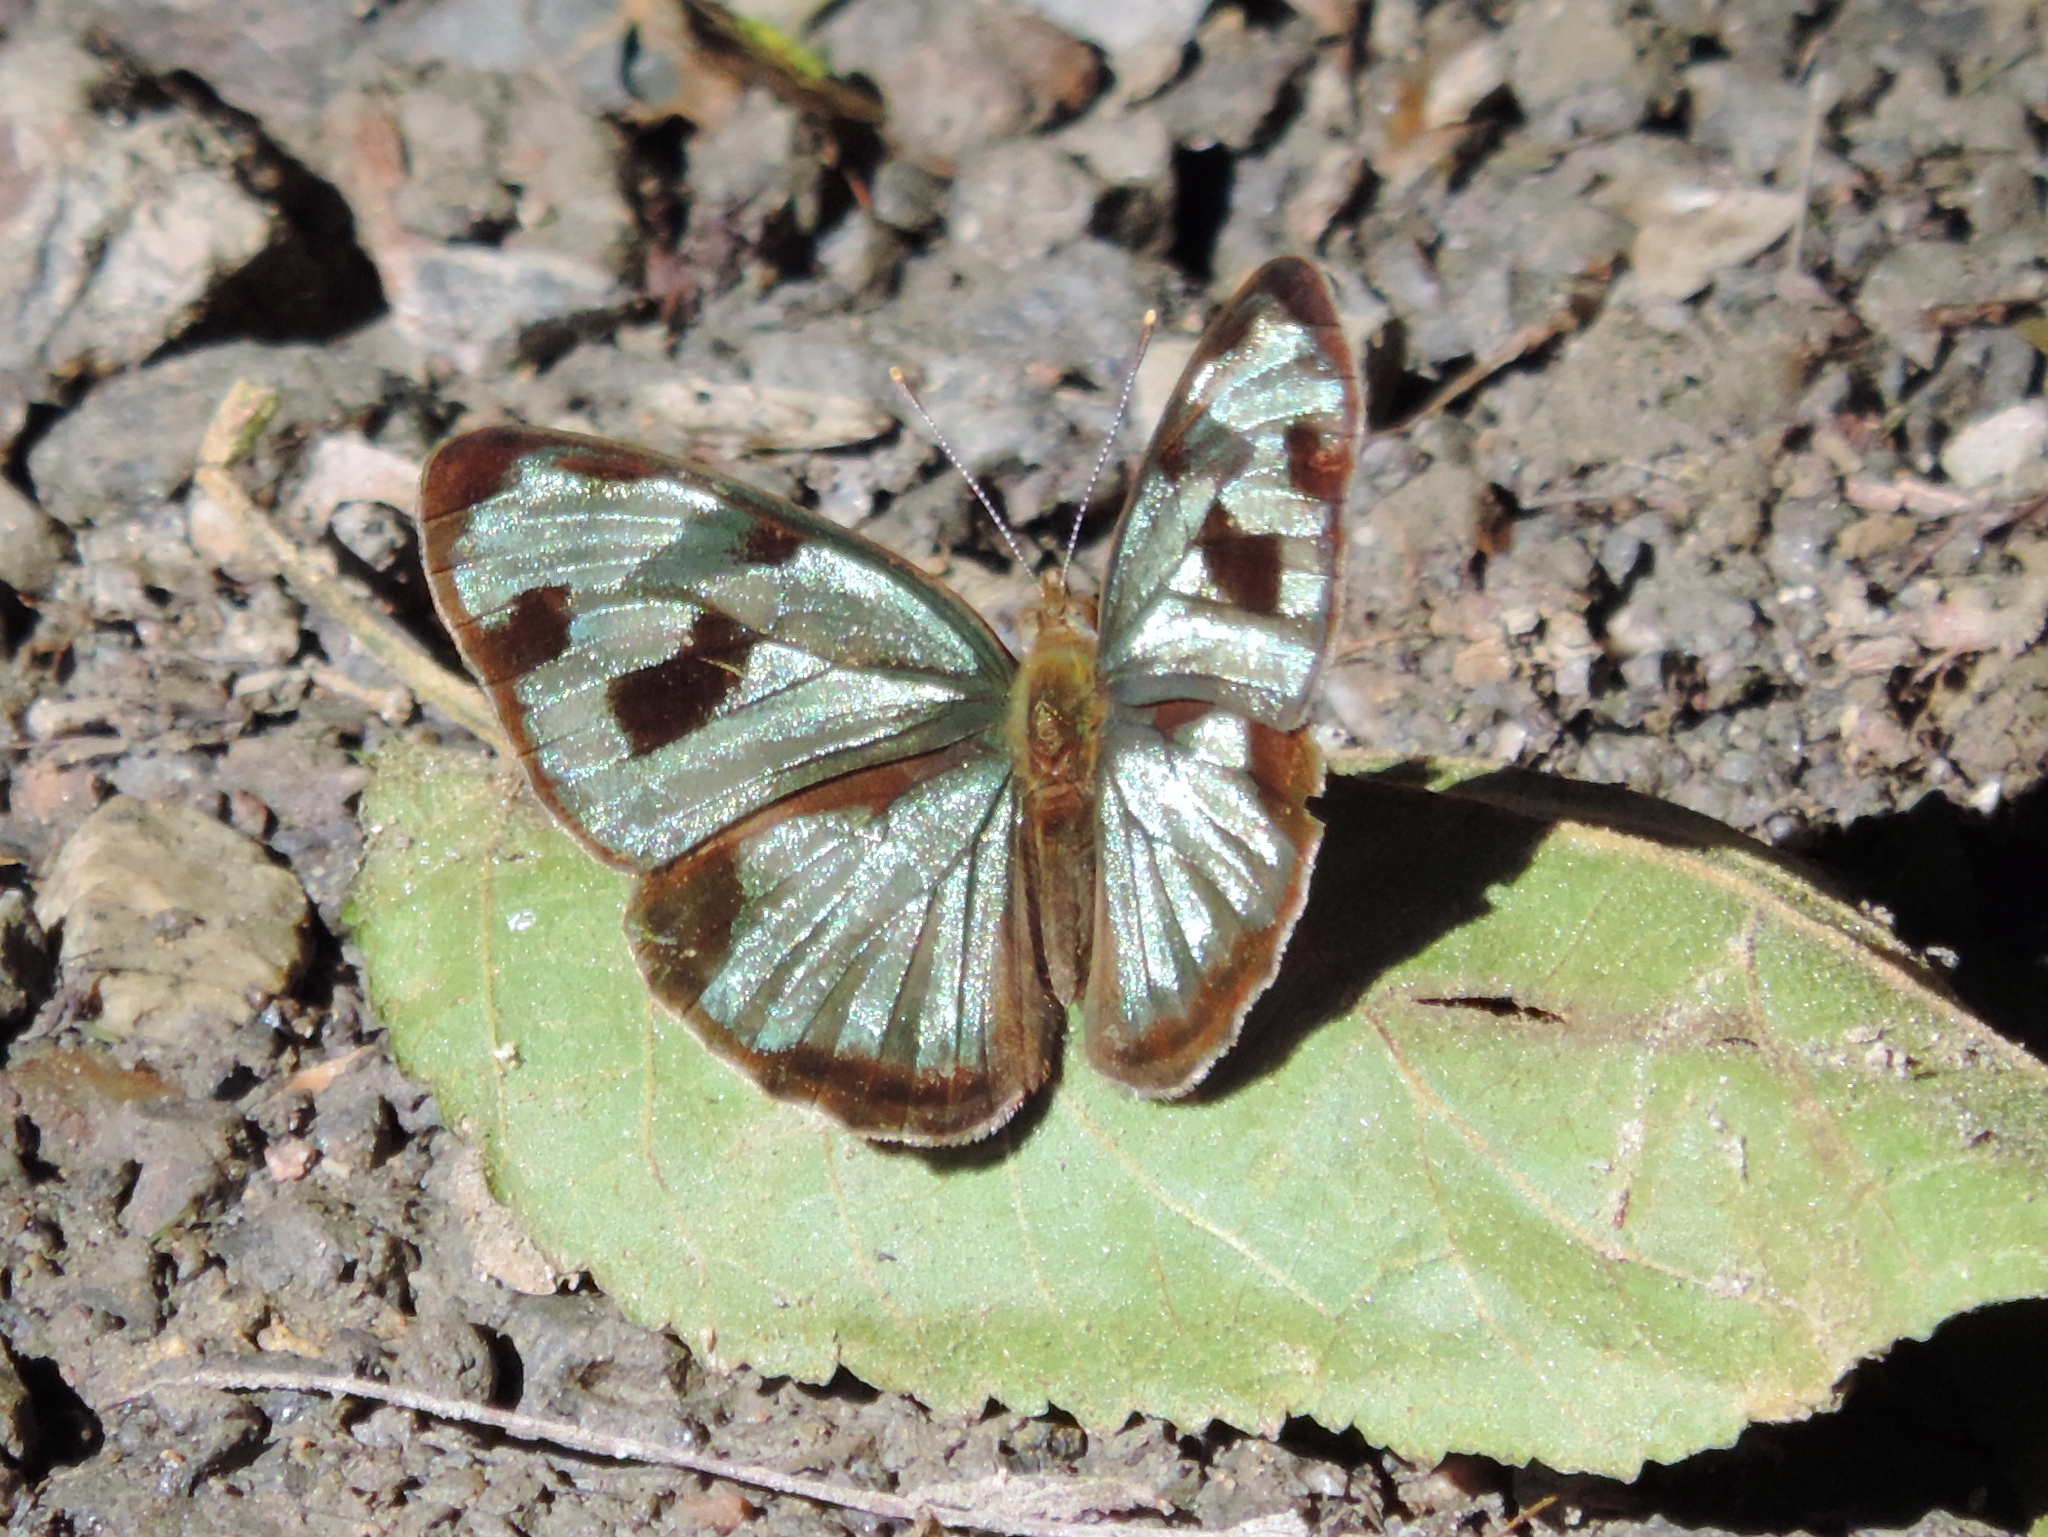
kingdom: Animalia
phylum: Arthropoda
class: Insecta
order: Lepidoptera
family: Nymphalidae
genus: Dynamine
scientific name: Dynamine mylitta
